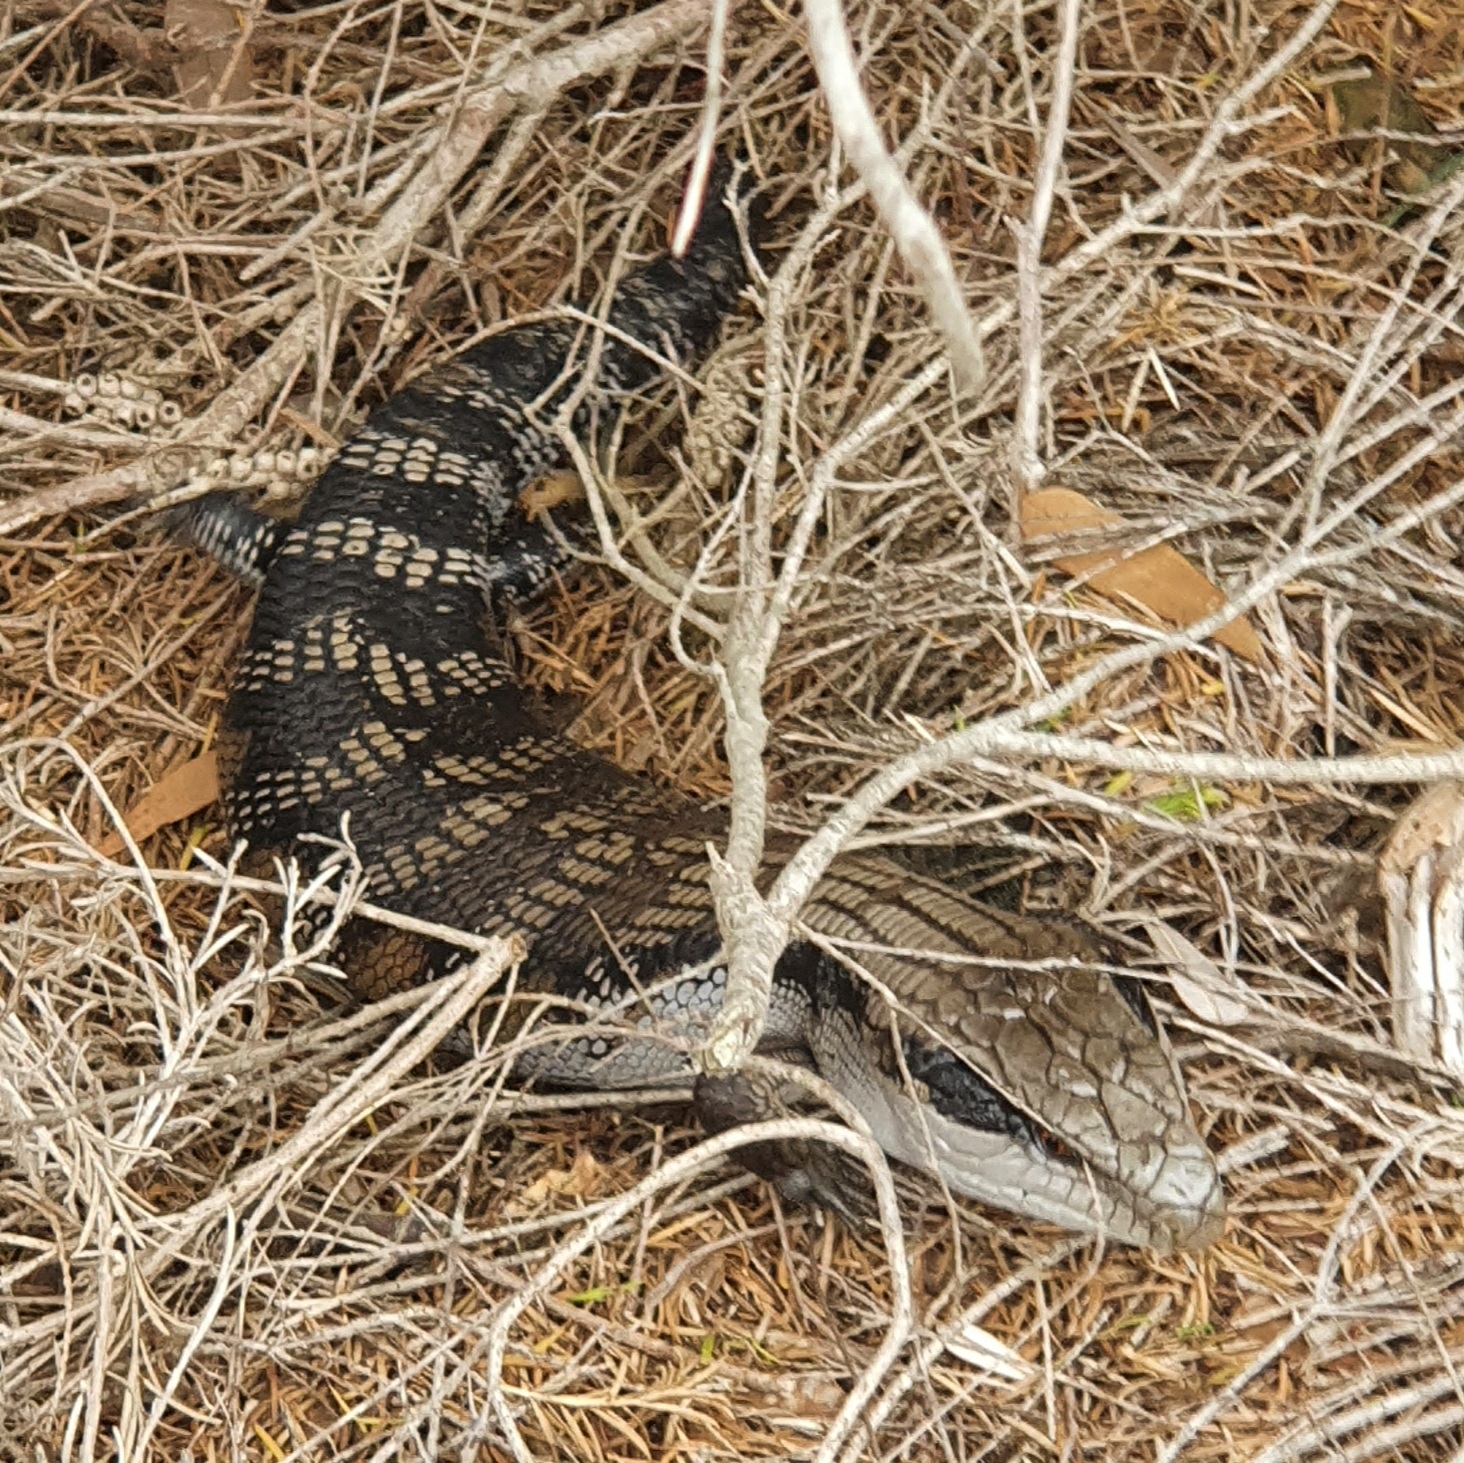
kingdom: Animalia
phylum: Chordata
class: Squamata
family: Scincidae
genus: Tiliqua
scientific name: Tiliqua scincoides
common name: Common bluetongue
